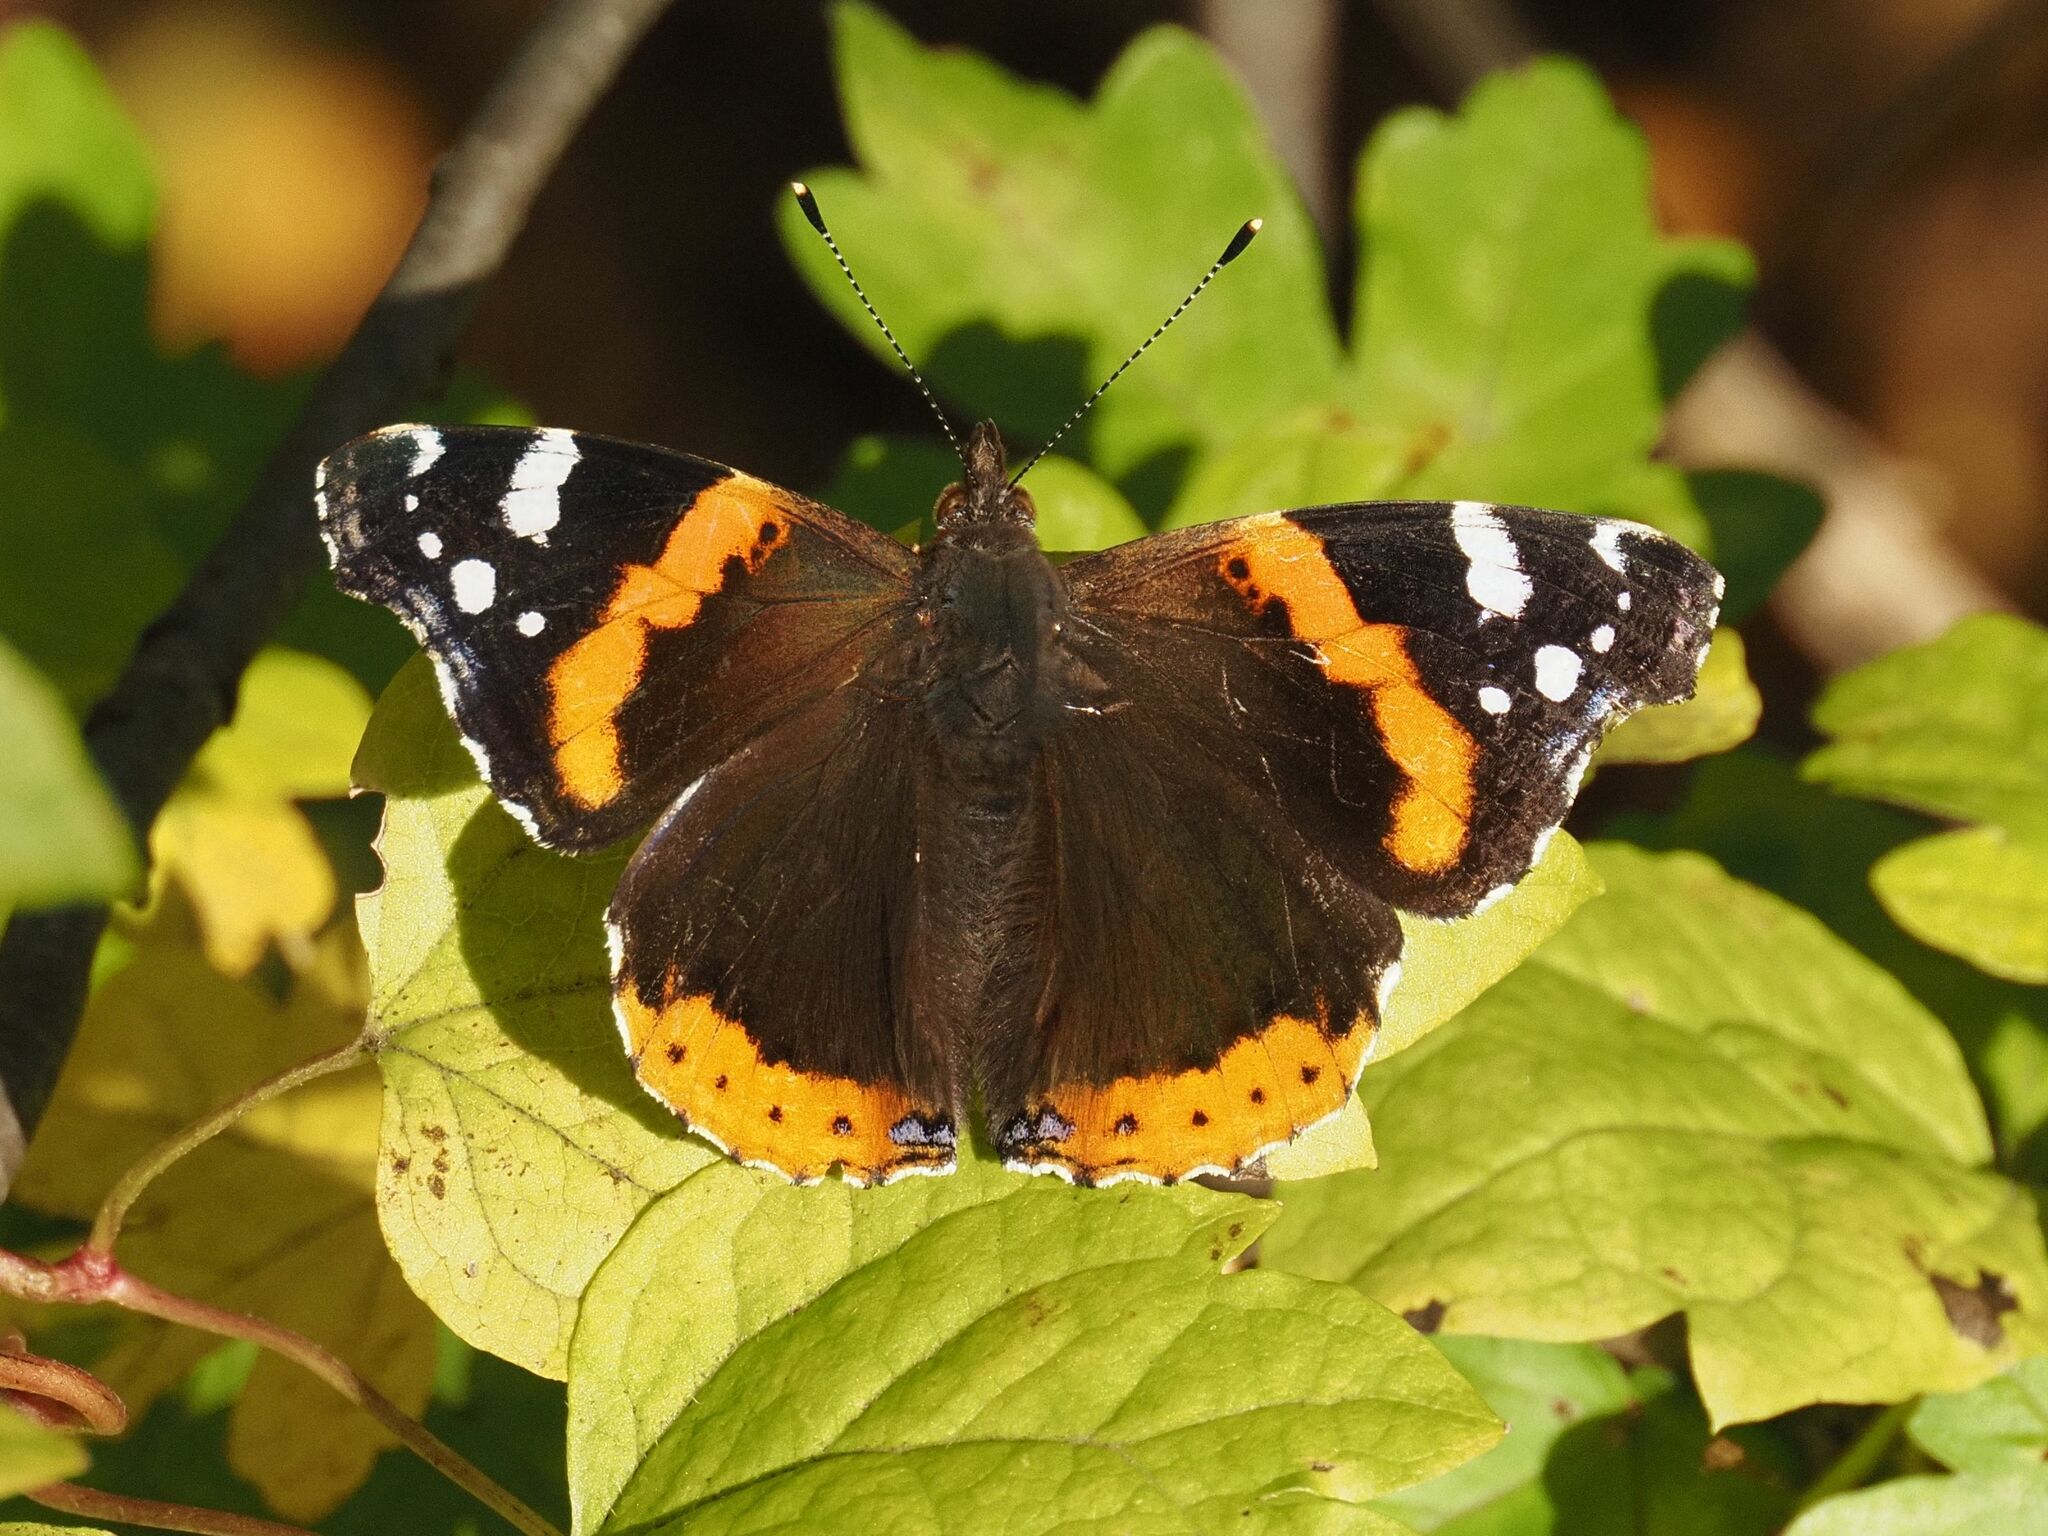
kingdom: Animalia
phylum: Arthropoda
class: Insecta
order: Lepidoptera
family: Nymphalidae
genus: Vanessa
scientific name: Vanessa atalanta
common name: Red admiral
